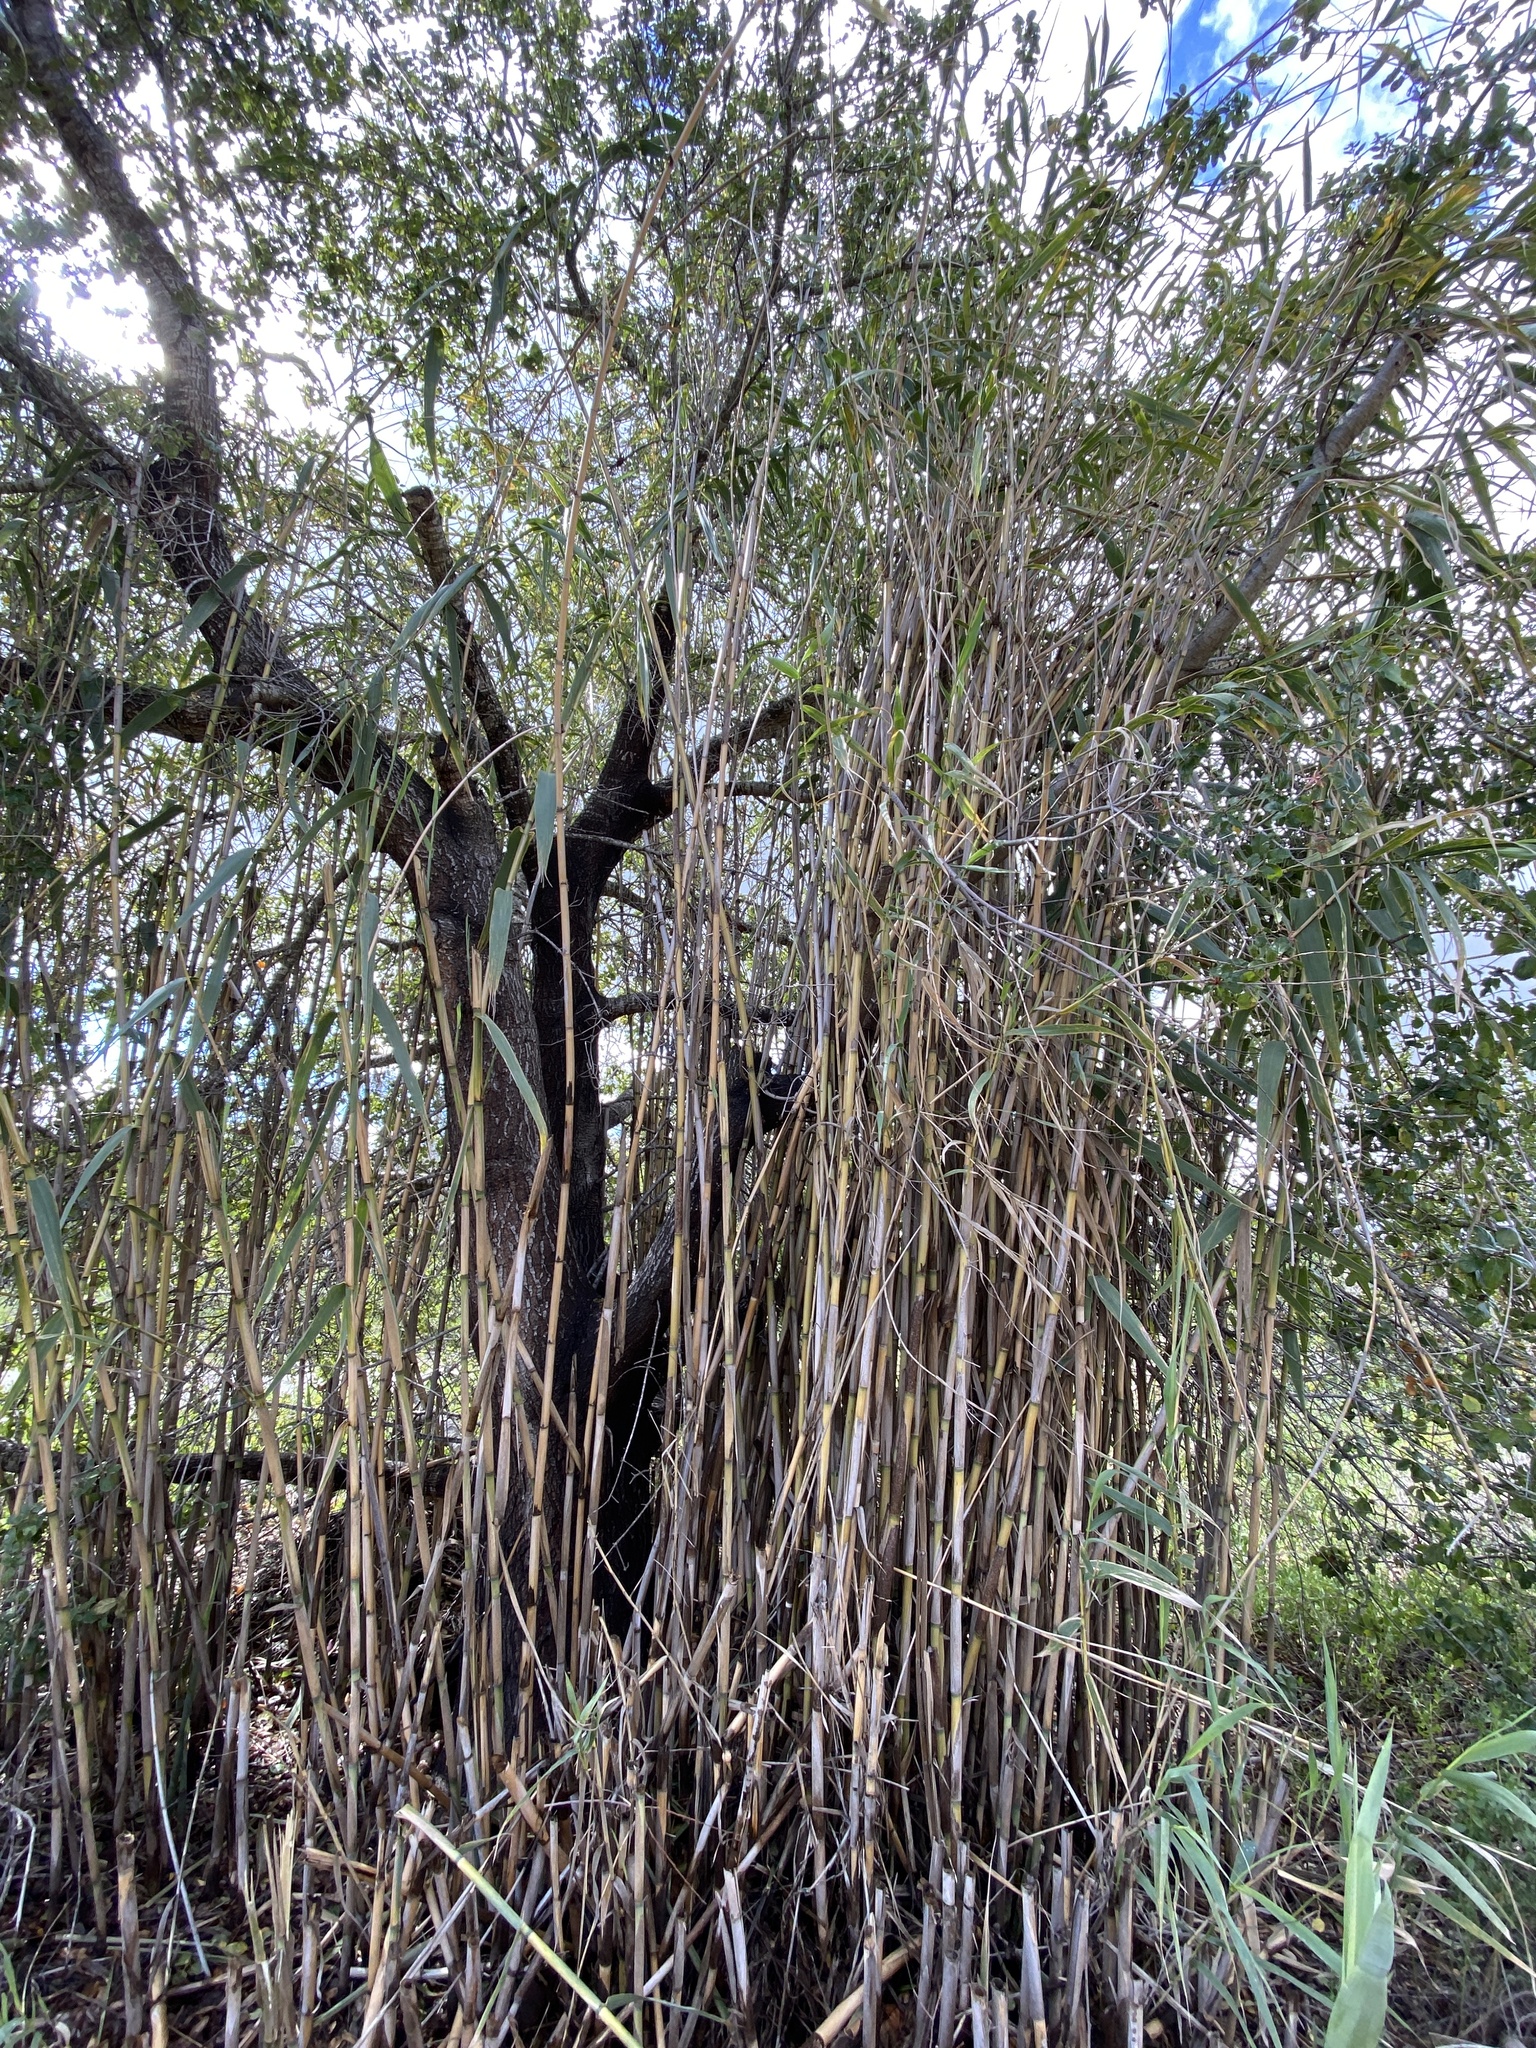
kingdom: Plantae
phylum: Tracheophyta
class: Liliopsida
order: Poales
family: Poaceae
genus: Arundo
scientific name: Arundo donax
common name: Giant reed
